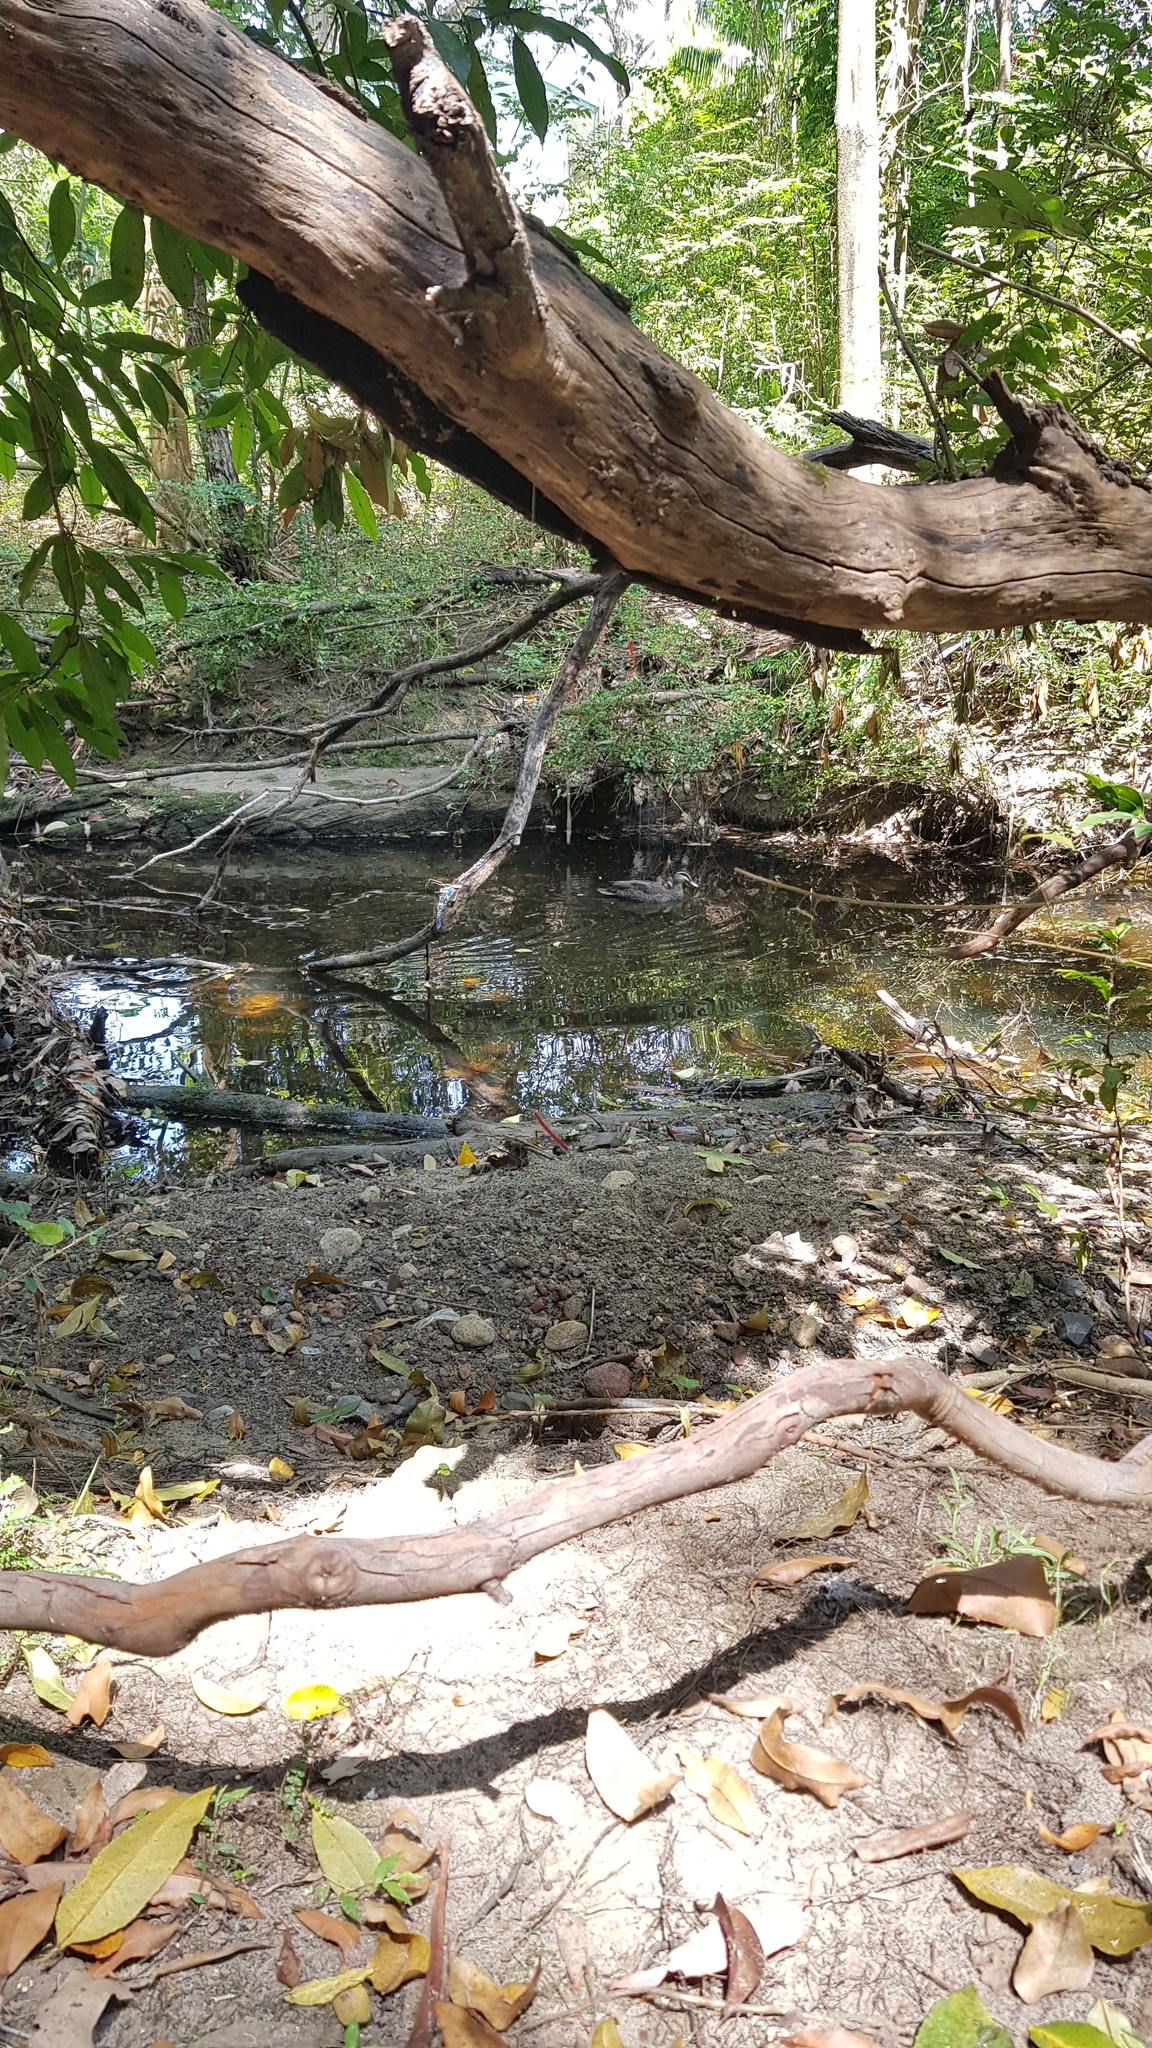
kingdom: Animalia
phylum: Chordata
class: Aves
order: Anseriformes
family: Anatidae
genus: Anas
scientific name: Anas superciliosa
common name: Pacific black duck
